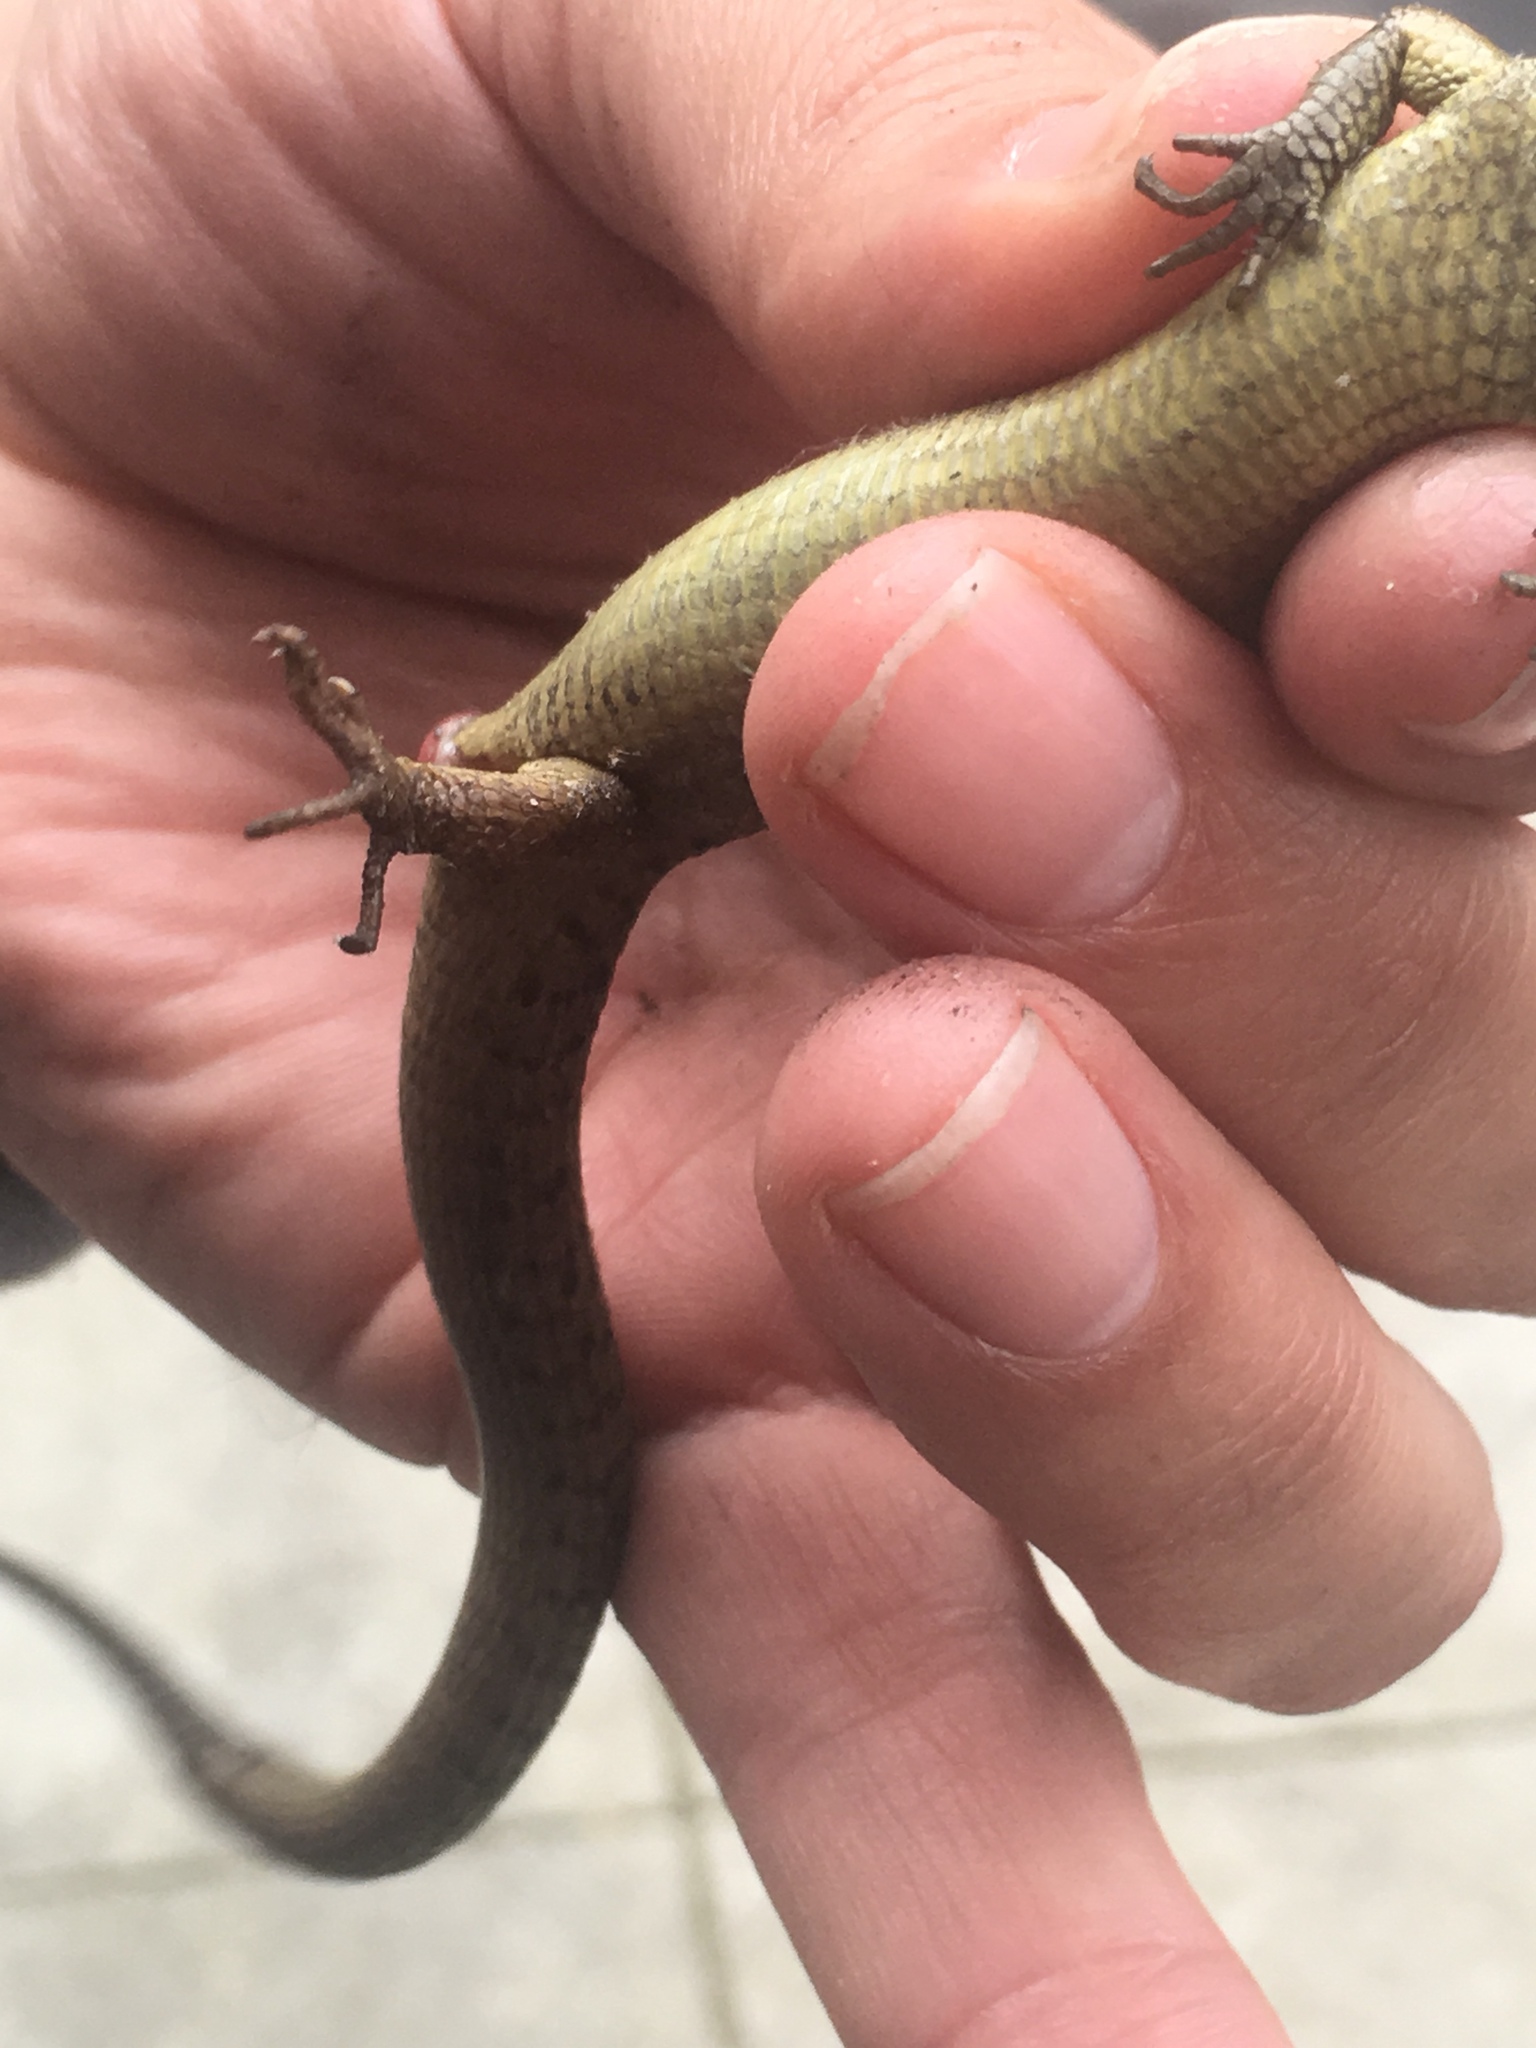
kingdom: Animalia
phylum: Chordata
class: Squamata
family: Anguidae
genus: Elgaria
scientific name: Elgaria coerulea
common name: Northern alligator lizard
